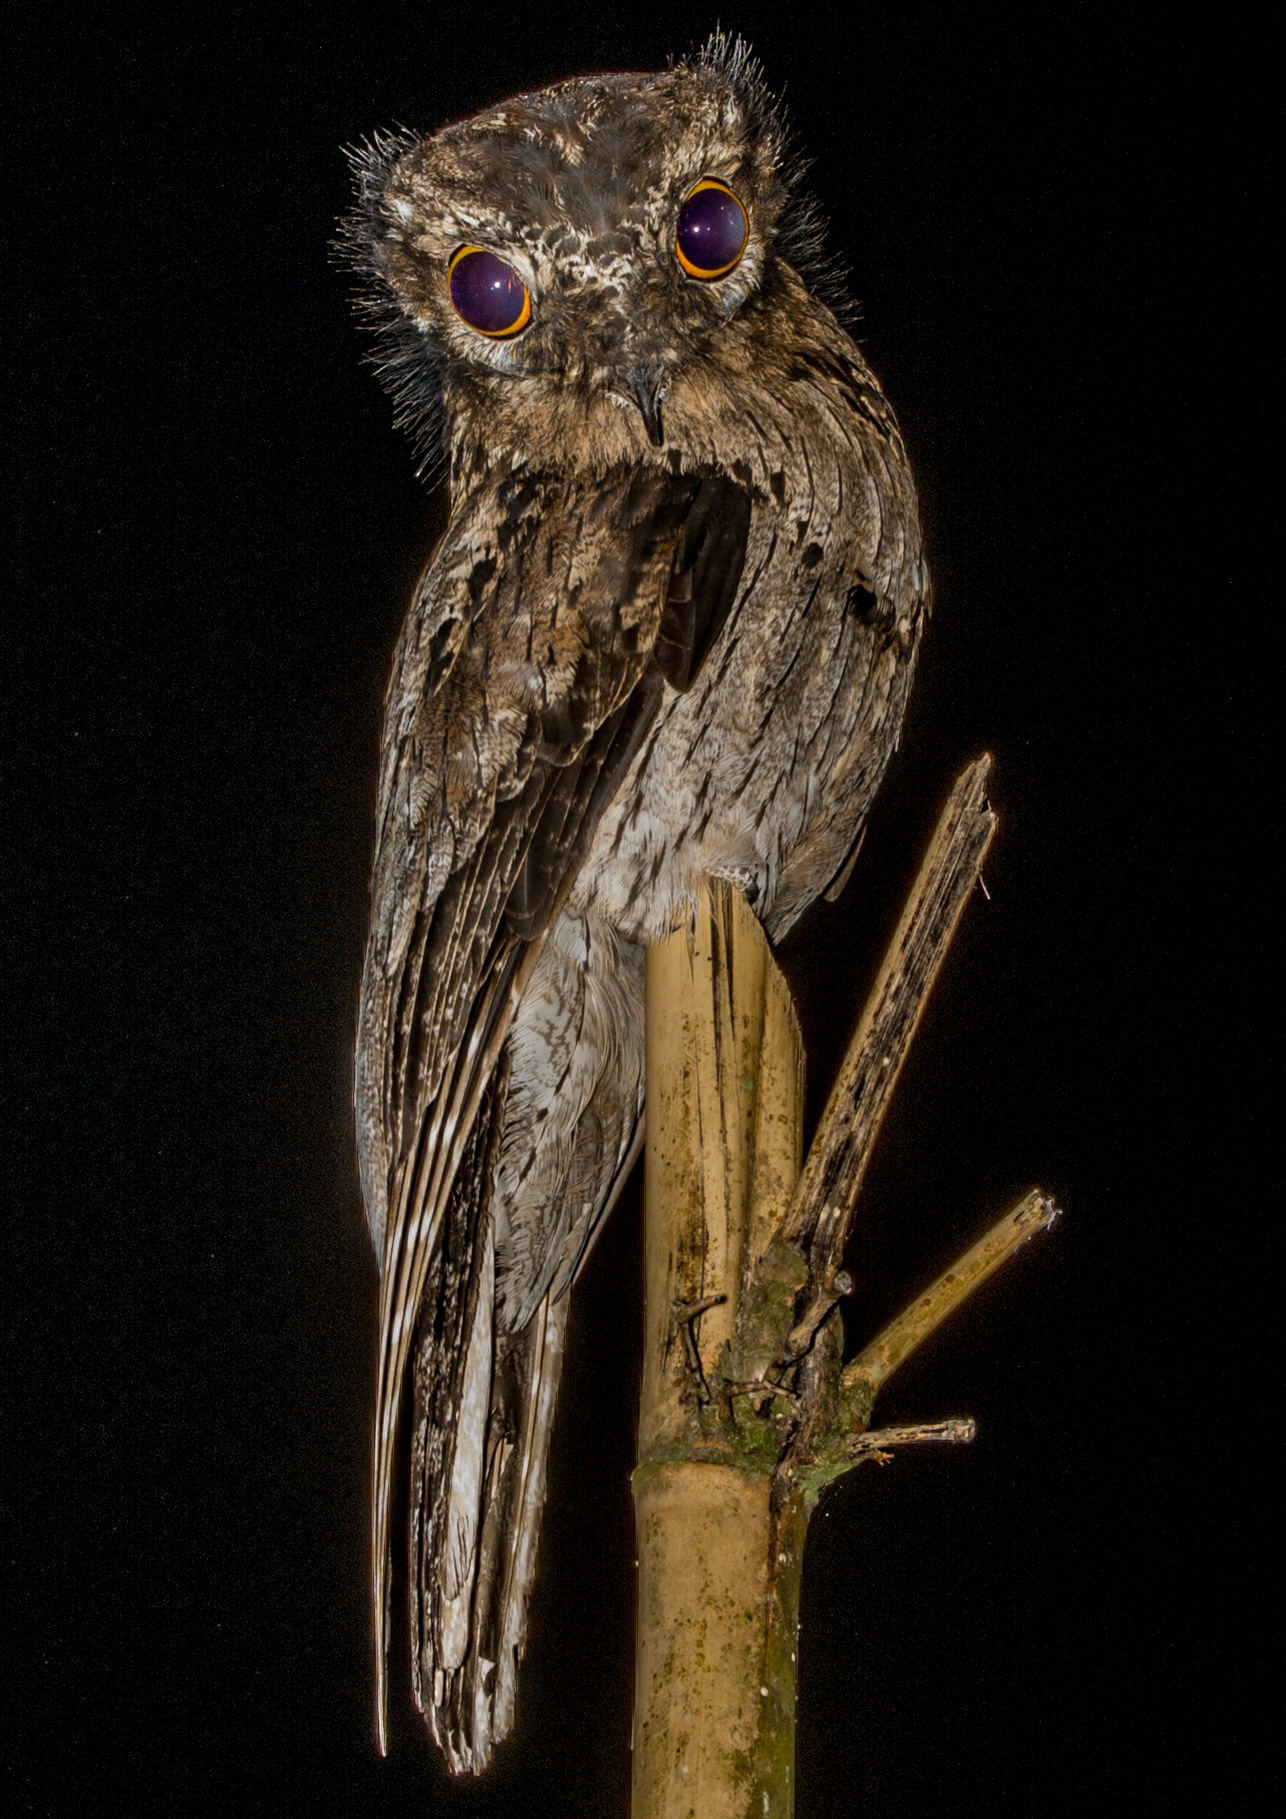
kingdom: Animalia
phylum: Chordata
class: Aves
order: Nyctibiiformes
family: Nyctibiidae
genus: Nyctibius
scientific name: Nyctibius griseus
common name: Common potoo
